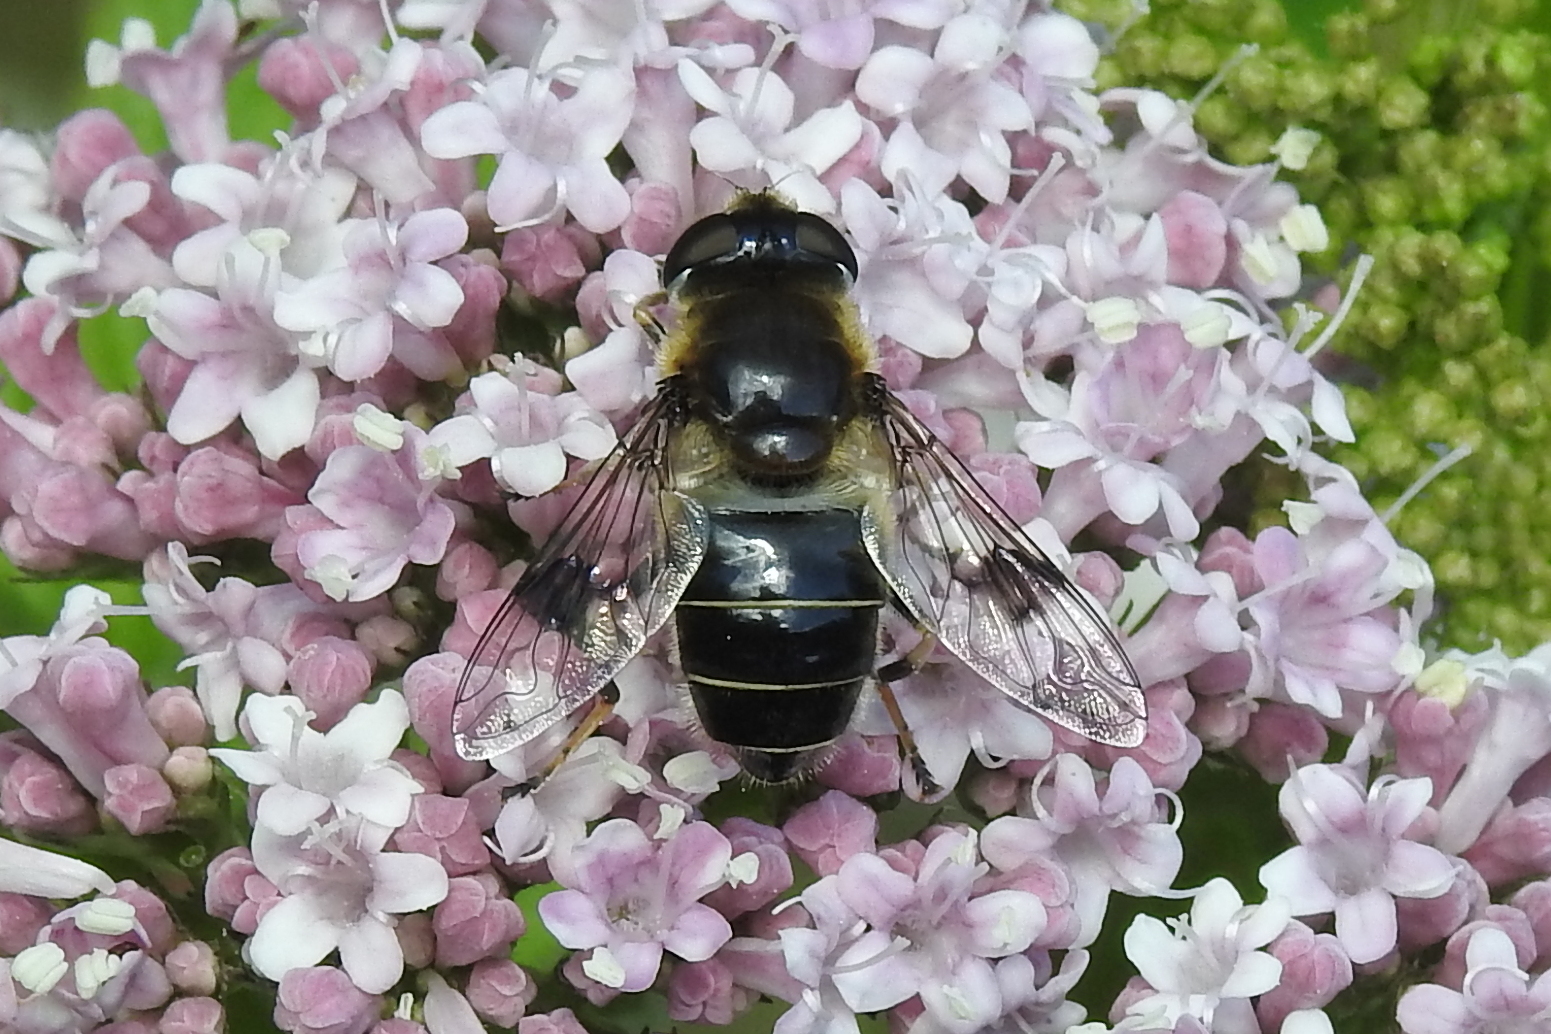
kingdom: Animalia
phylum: Arthropoda
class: Insecta
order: Diptera
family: Syrphidae
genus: Eristalis
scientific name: Eristalis rupium
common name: Hover fly
